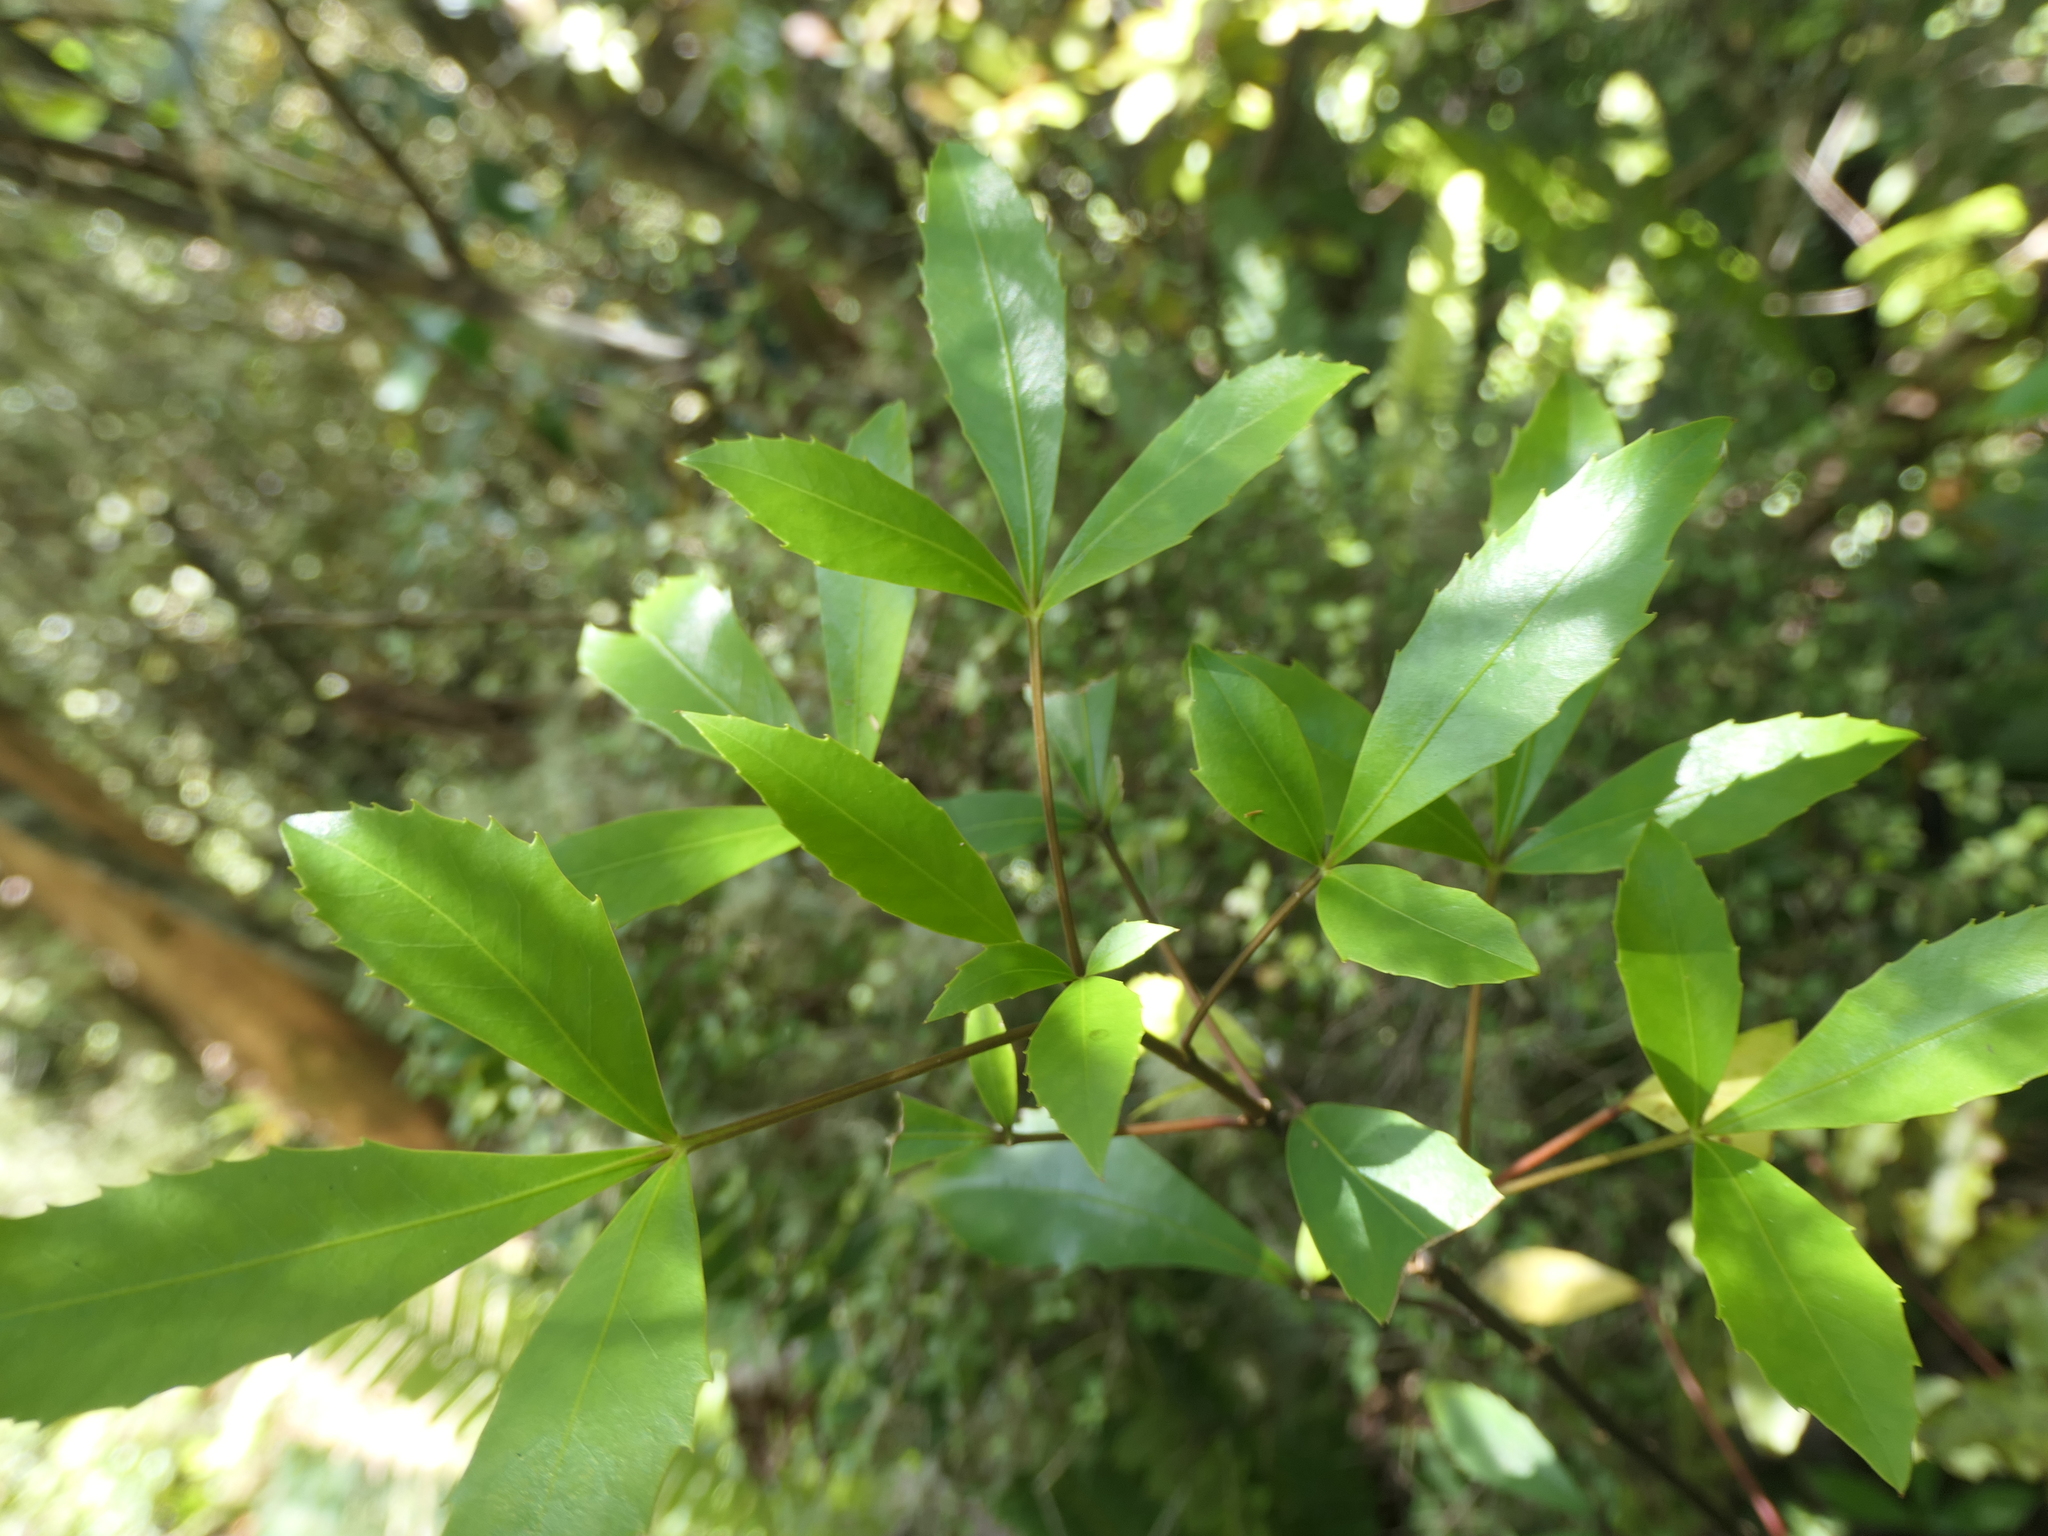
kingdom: Plantae
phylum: Tracheophyta
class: Magnoliopsida
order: Apiales
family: Araliaceae
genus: Raukaua
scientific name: Raukaua simplex
